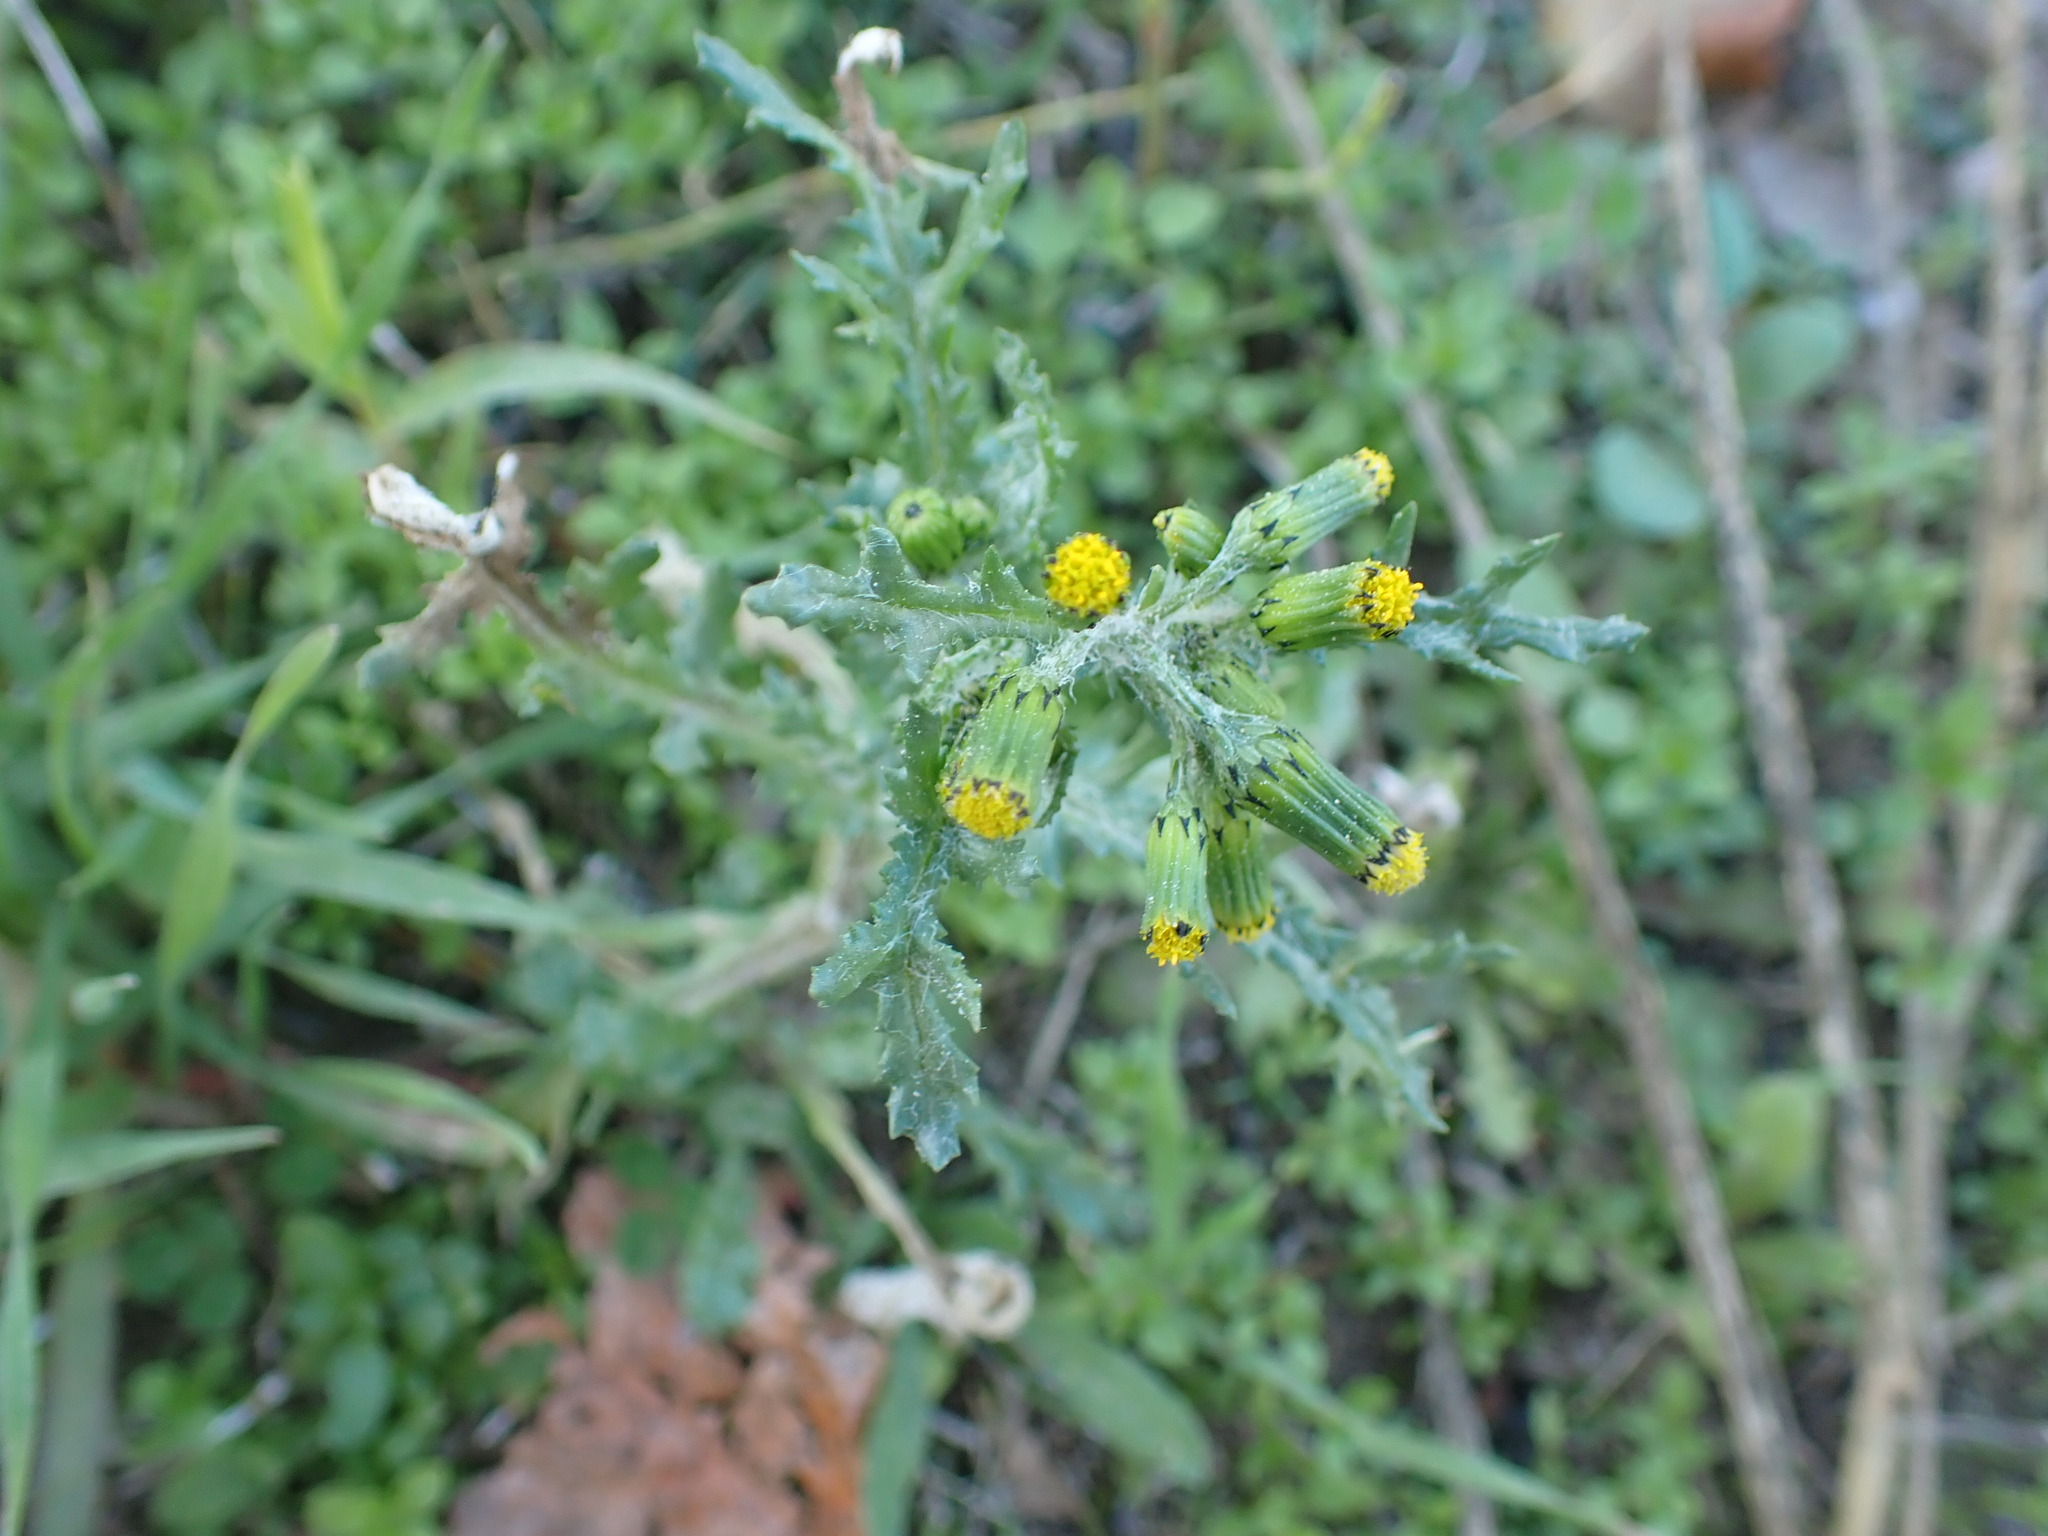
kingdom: Plantae
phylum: Tracheophyta
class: Magnoliopsida
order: Asterales
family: Asteraceae
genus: Senecio
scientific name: Senecio vulgaris
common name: Old-man-in-the-spring
